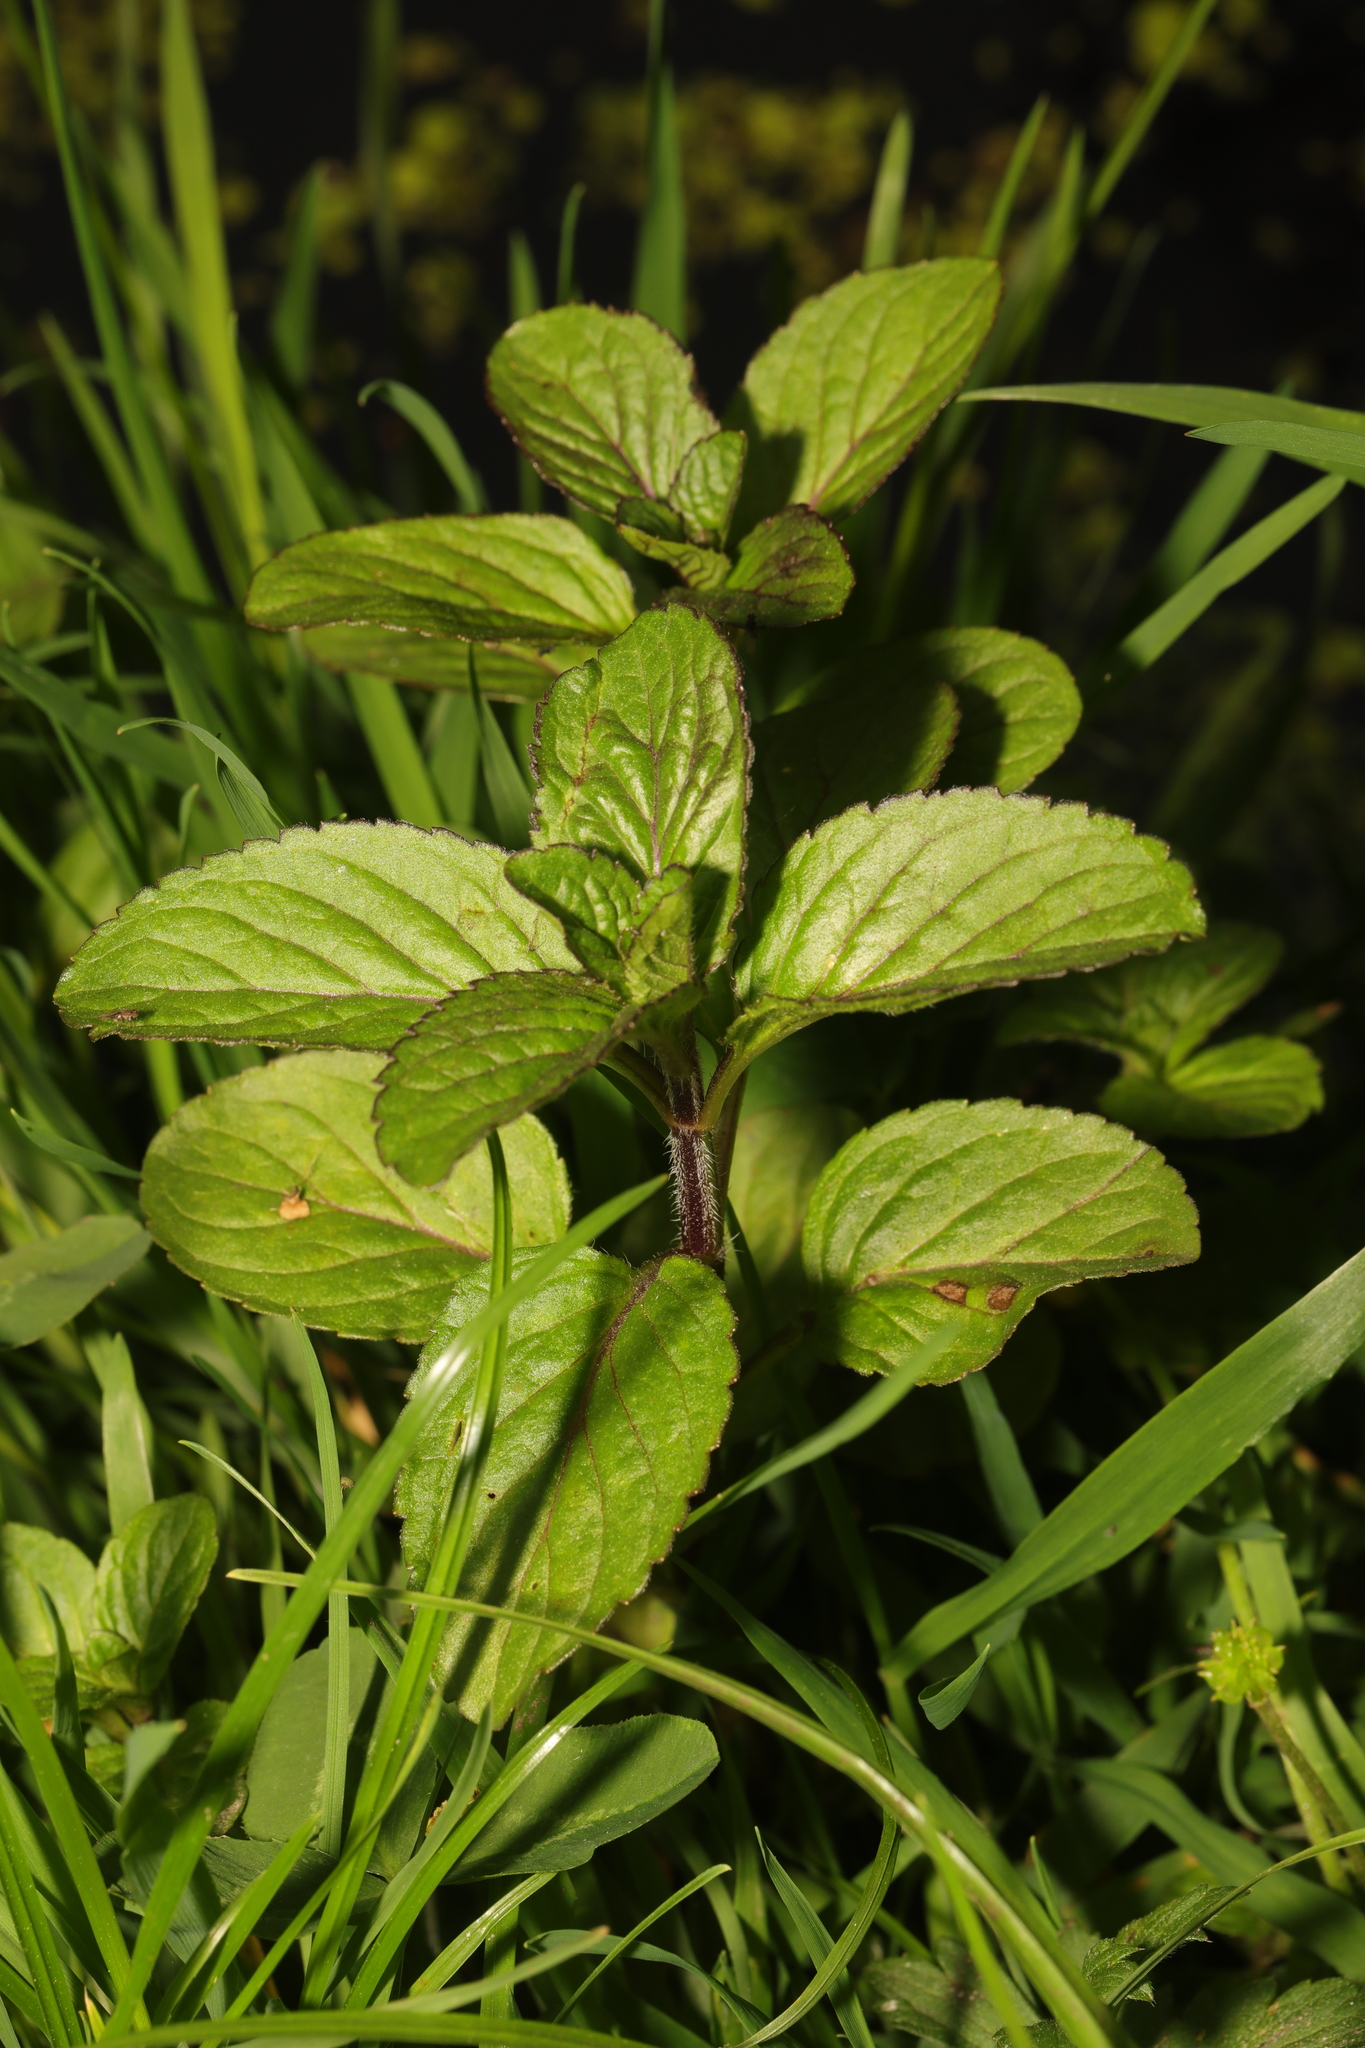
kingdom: Plantae
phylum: Tracheophyta
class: Magnoliopsida
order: Lamiales
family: Lamiaceae
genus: Mentha
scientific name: Mentha aquatica
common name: Water mint
